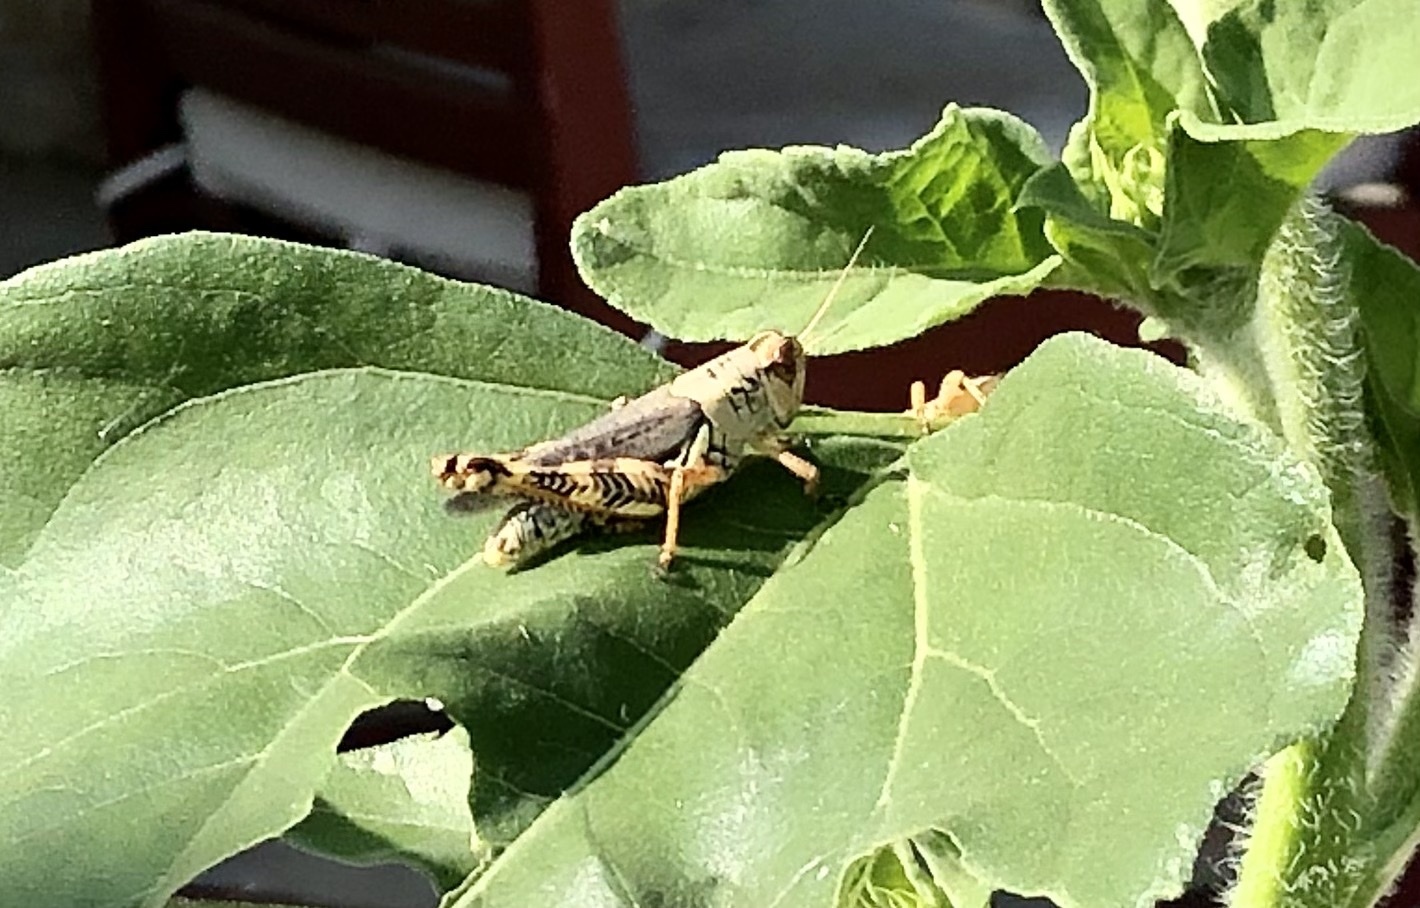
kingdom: Animalia
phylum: Arthropoda
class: Insecta
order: Orthoptera
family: Acrididae
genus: Melanoplus
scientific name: Melanoplus ponderosus
